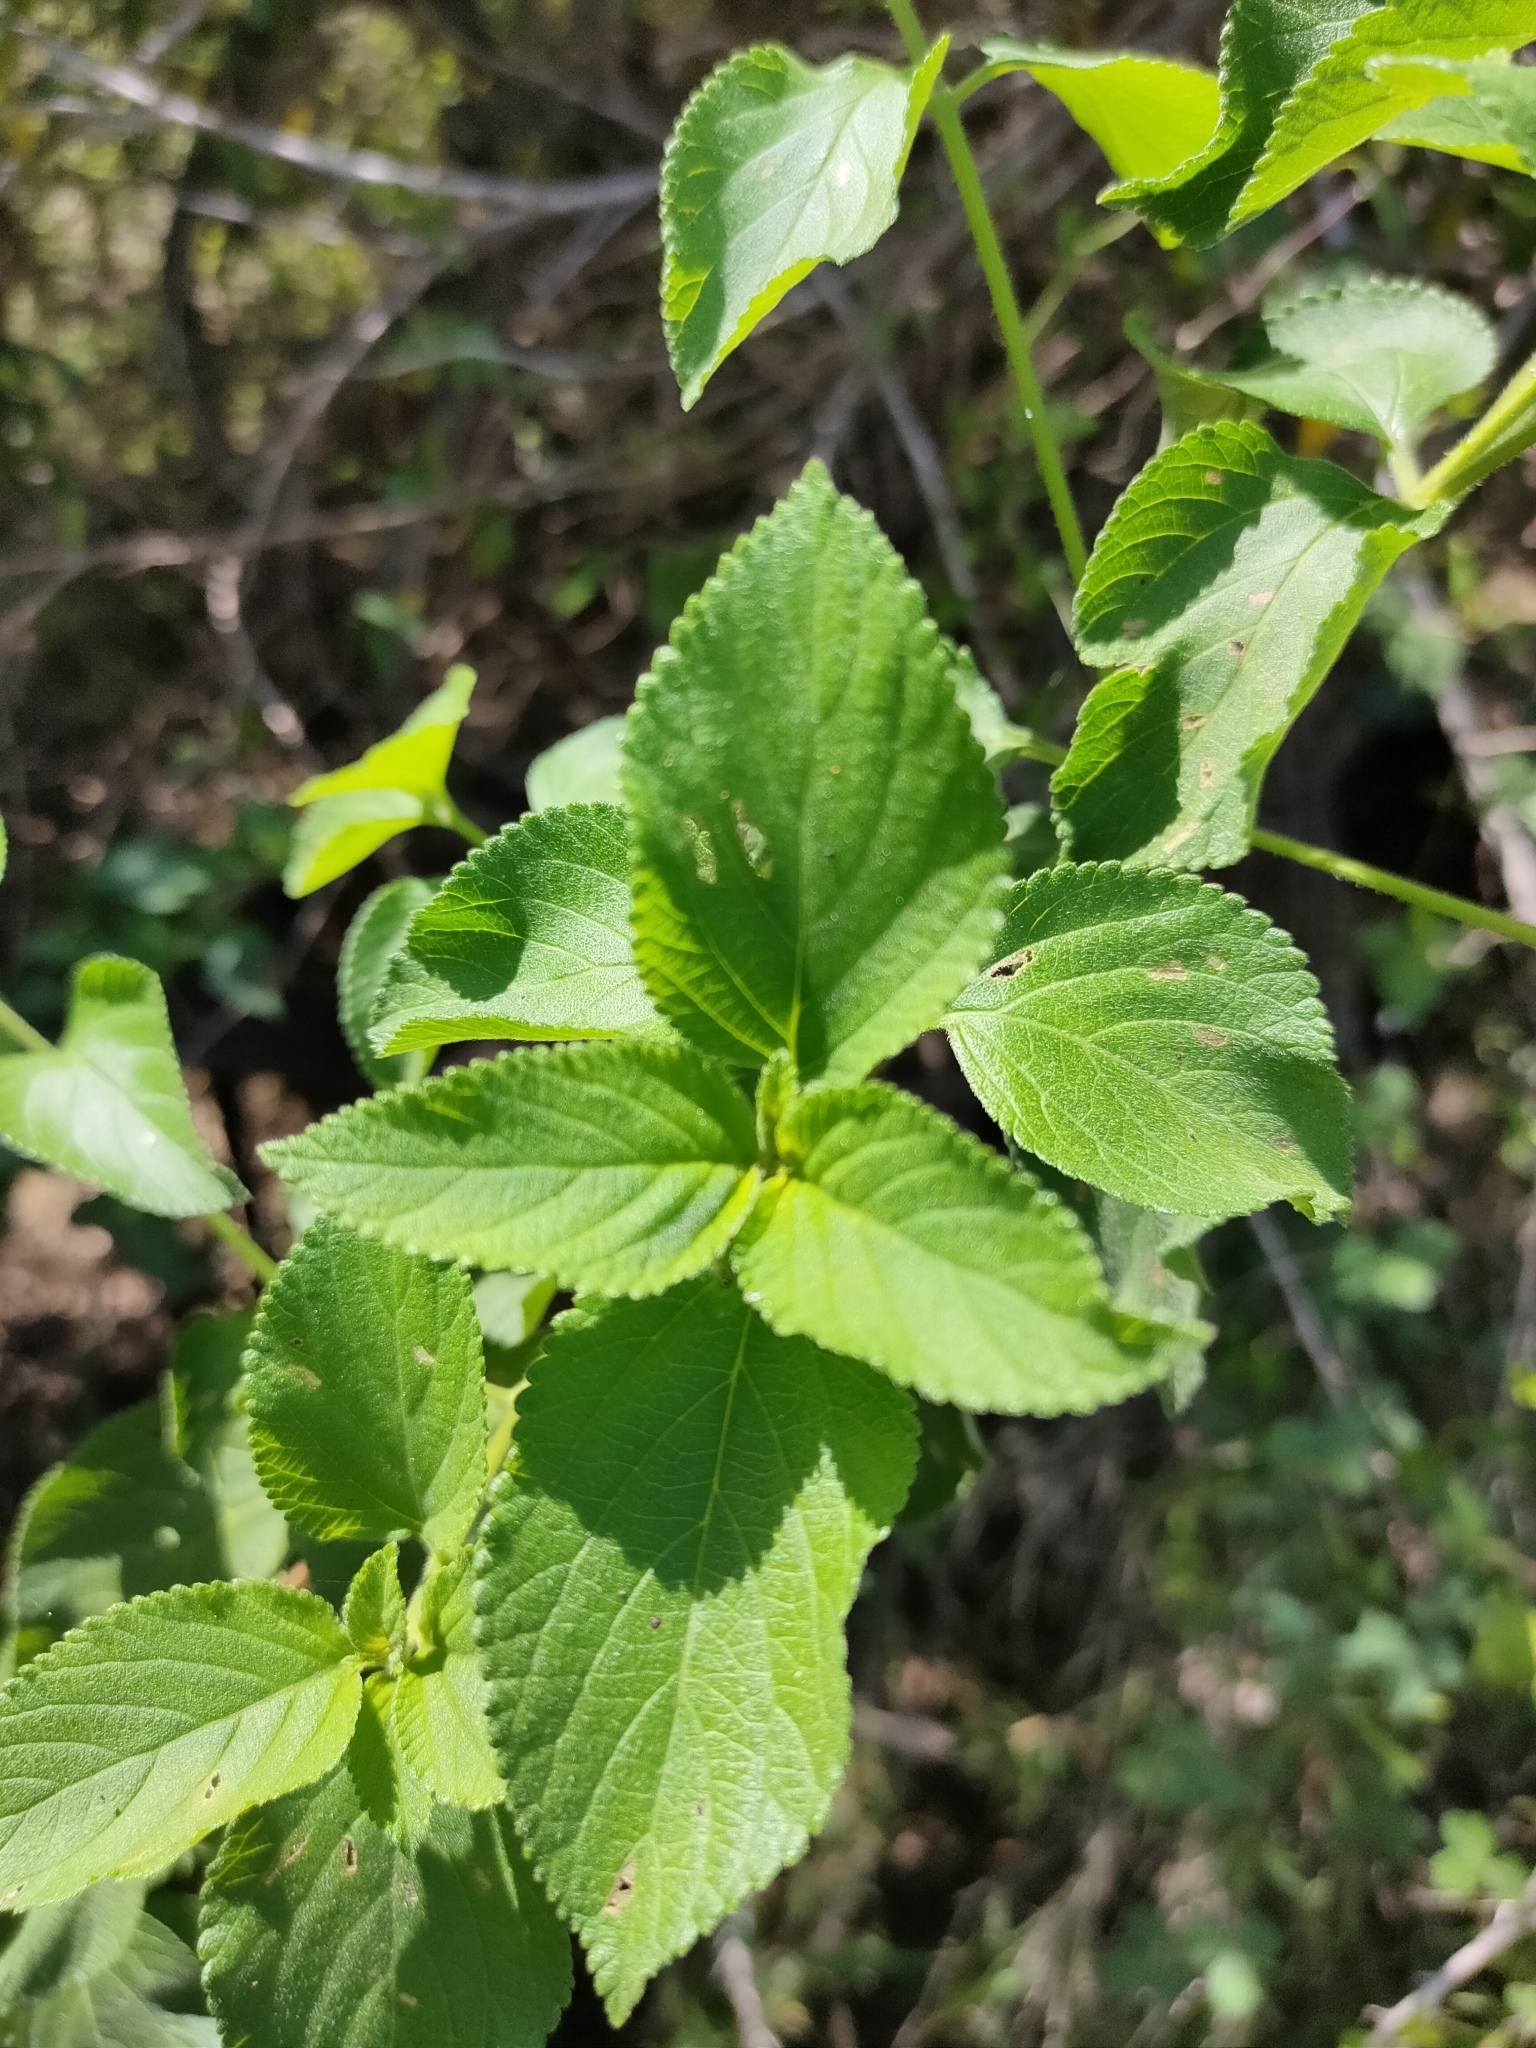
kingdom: Plantae
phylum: Tracheophyta
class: Magnoliopsida
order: Lamiales
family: Verbenaceae
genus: Lantana
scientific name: Lantana camara
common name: Lantana
